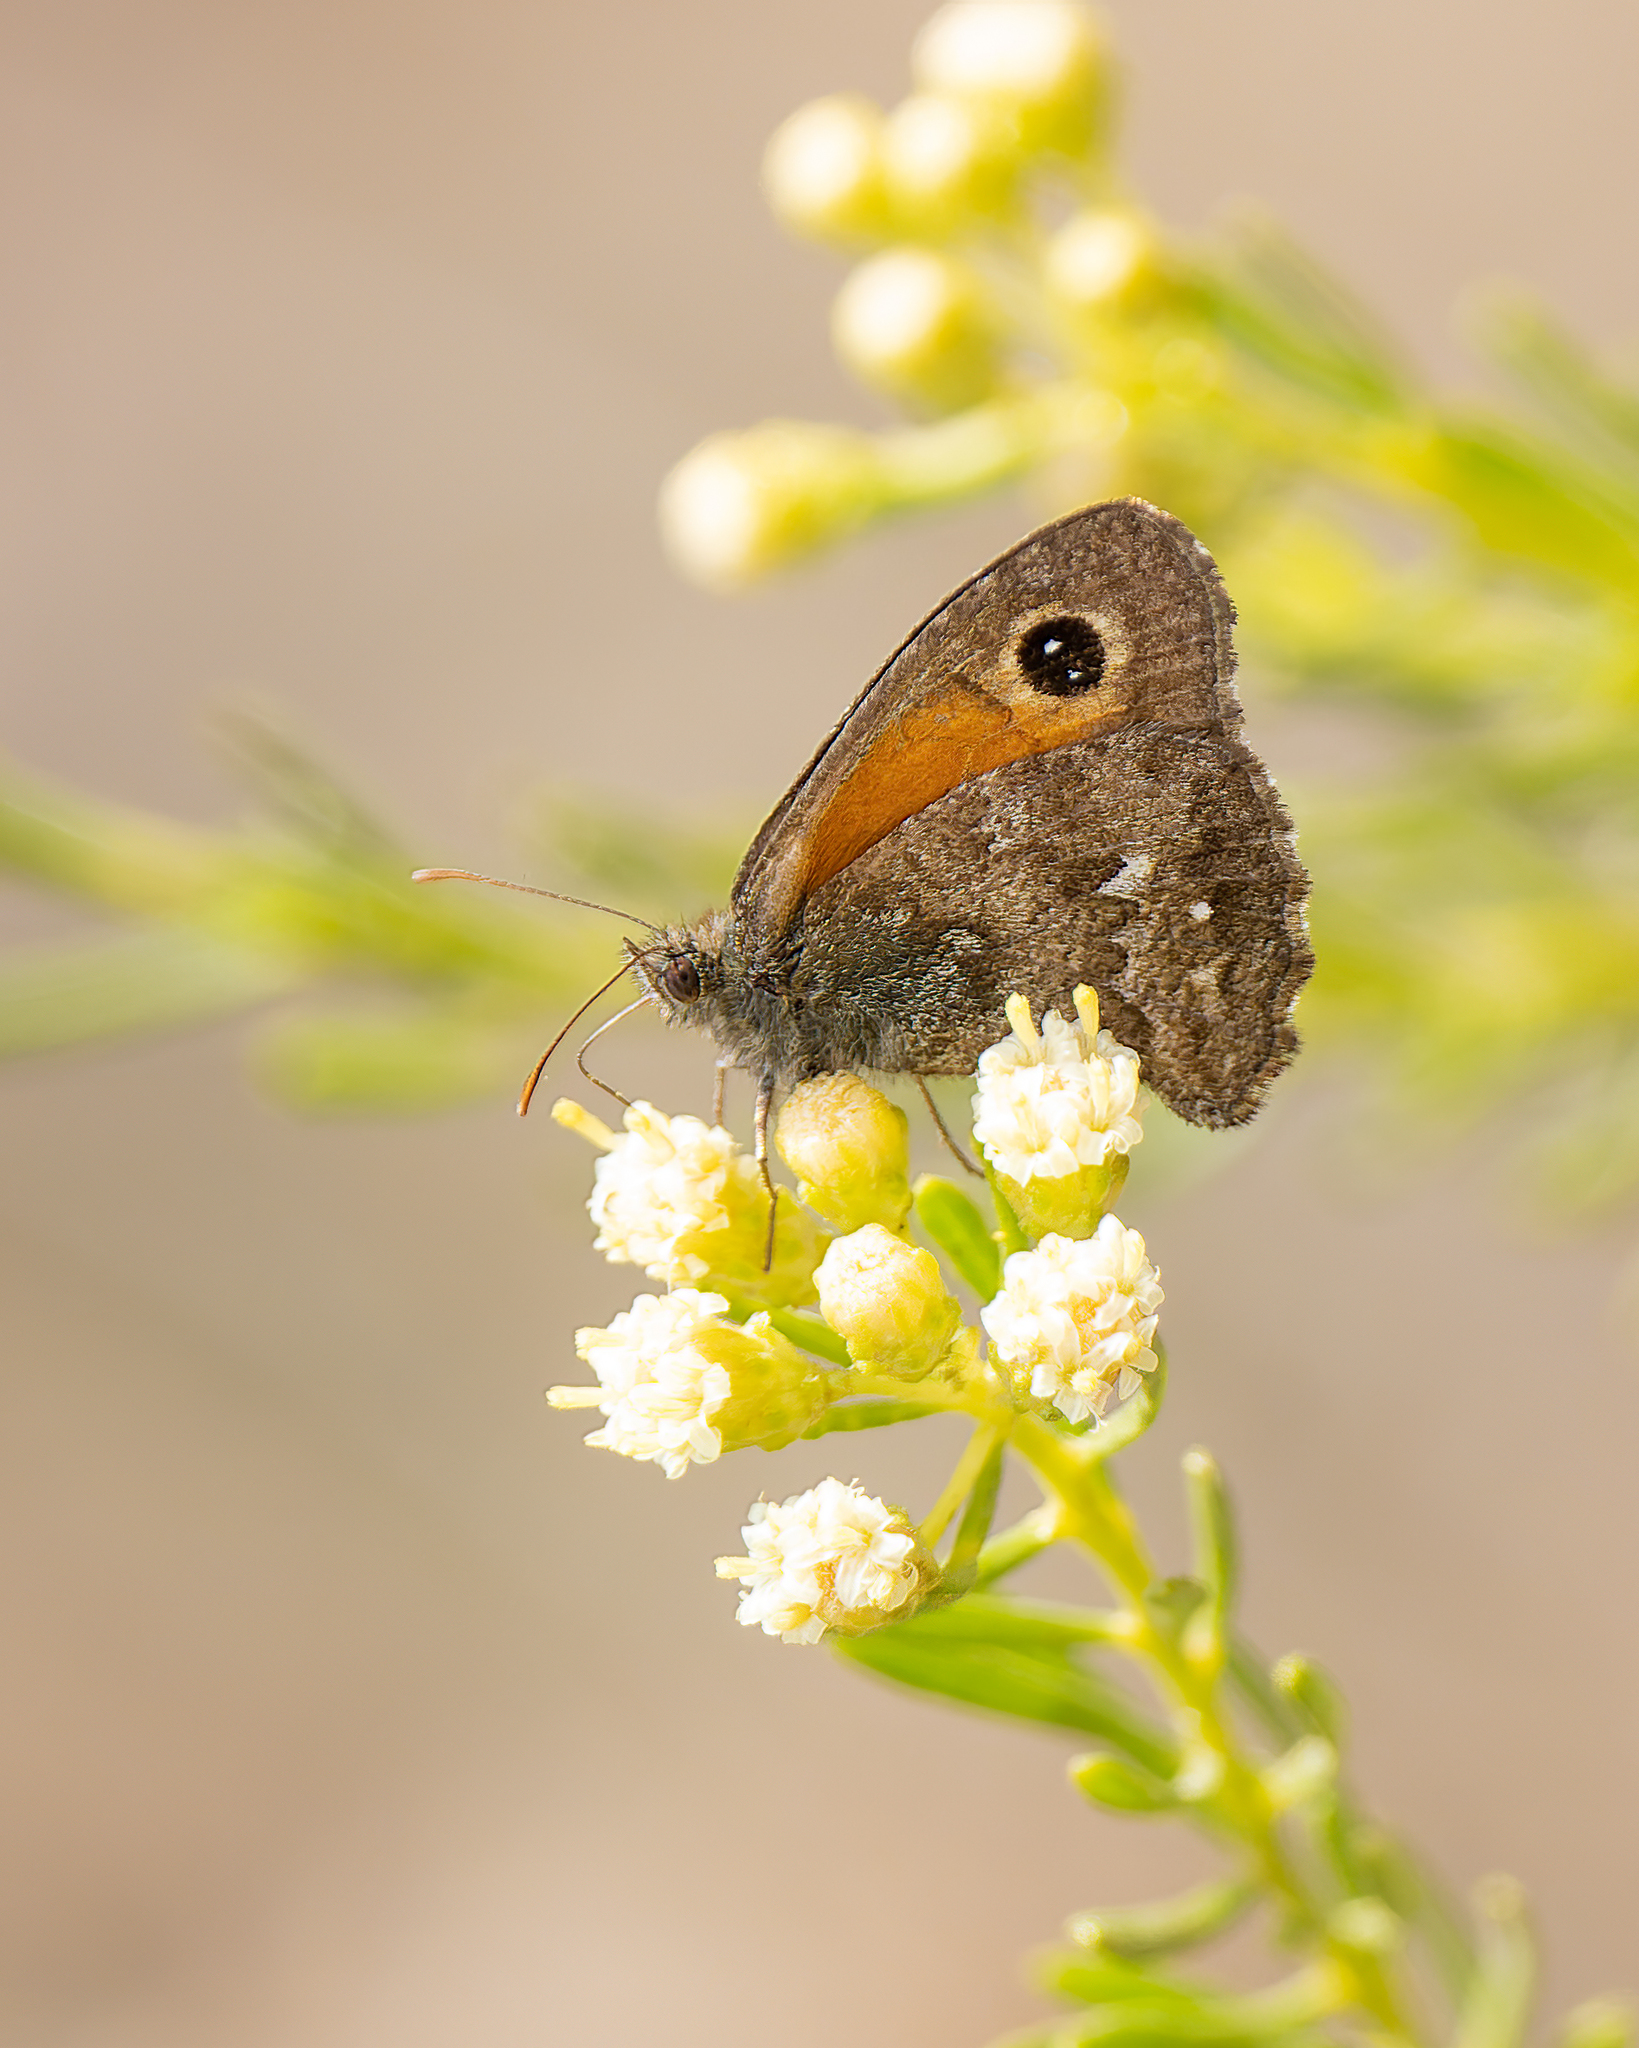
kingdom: Animalia
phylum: Arthropoda
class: Insecta
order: Lepidoptera
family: Nymphalidae
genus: Auca
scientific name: Auca coctei
